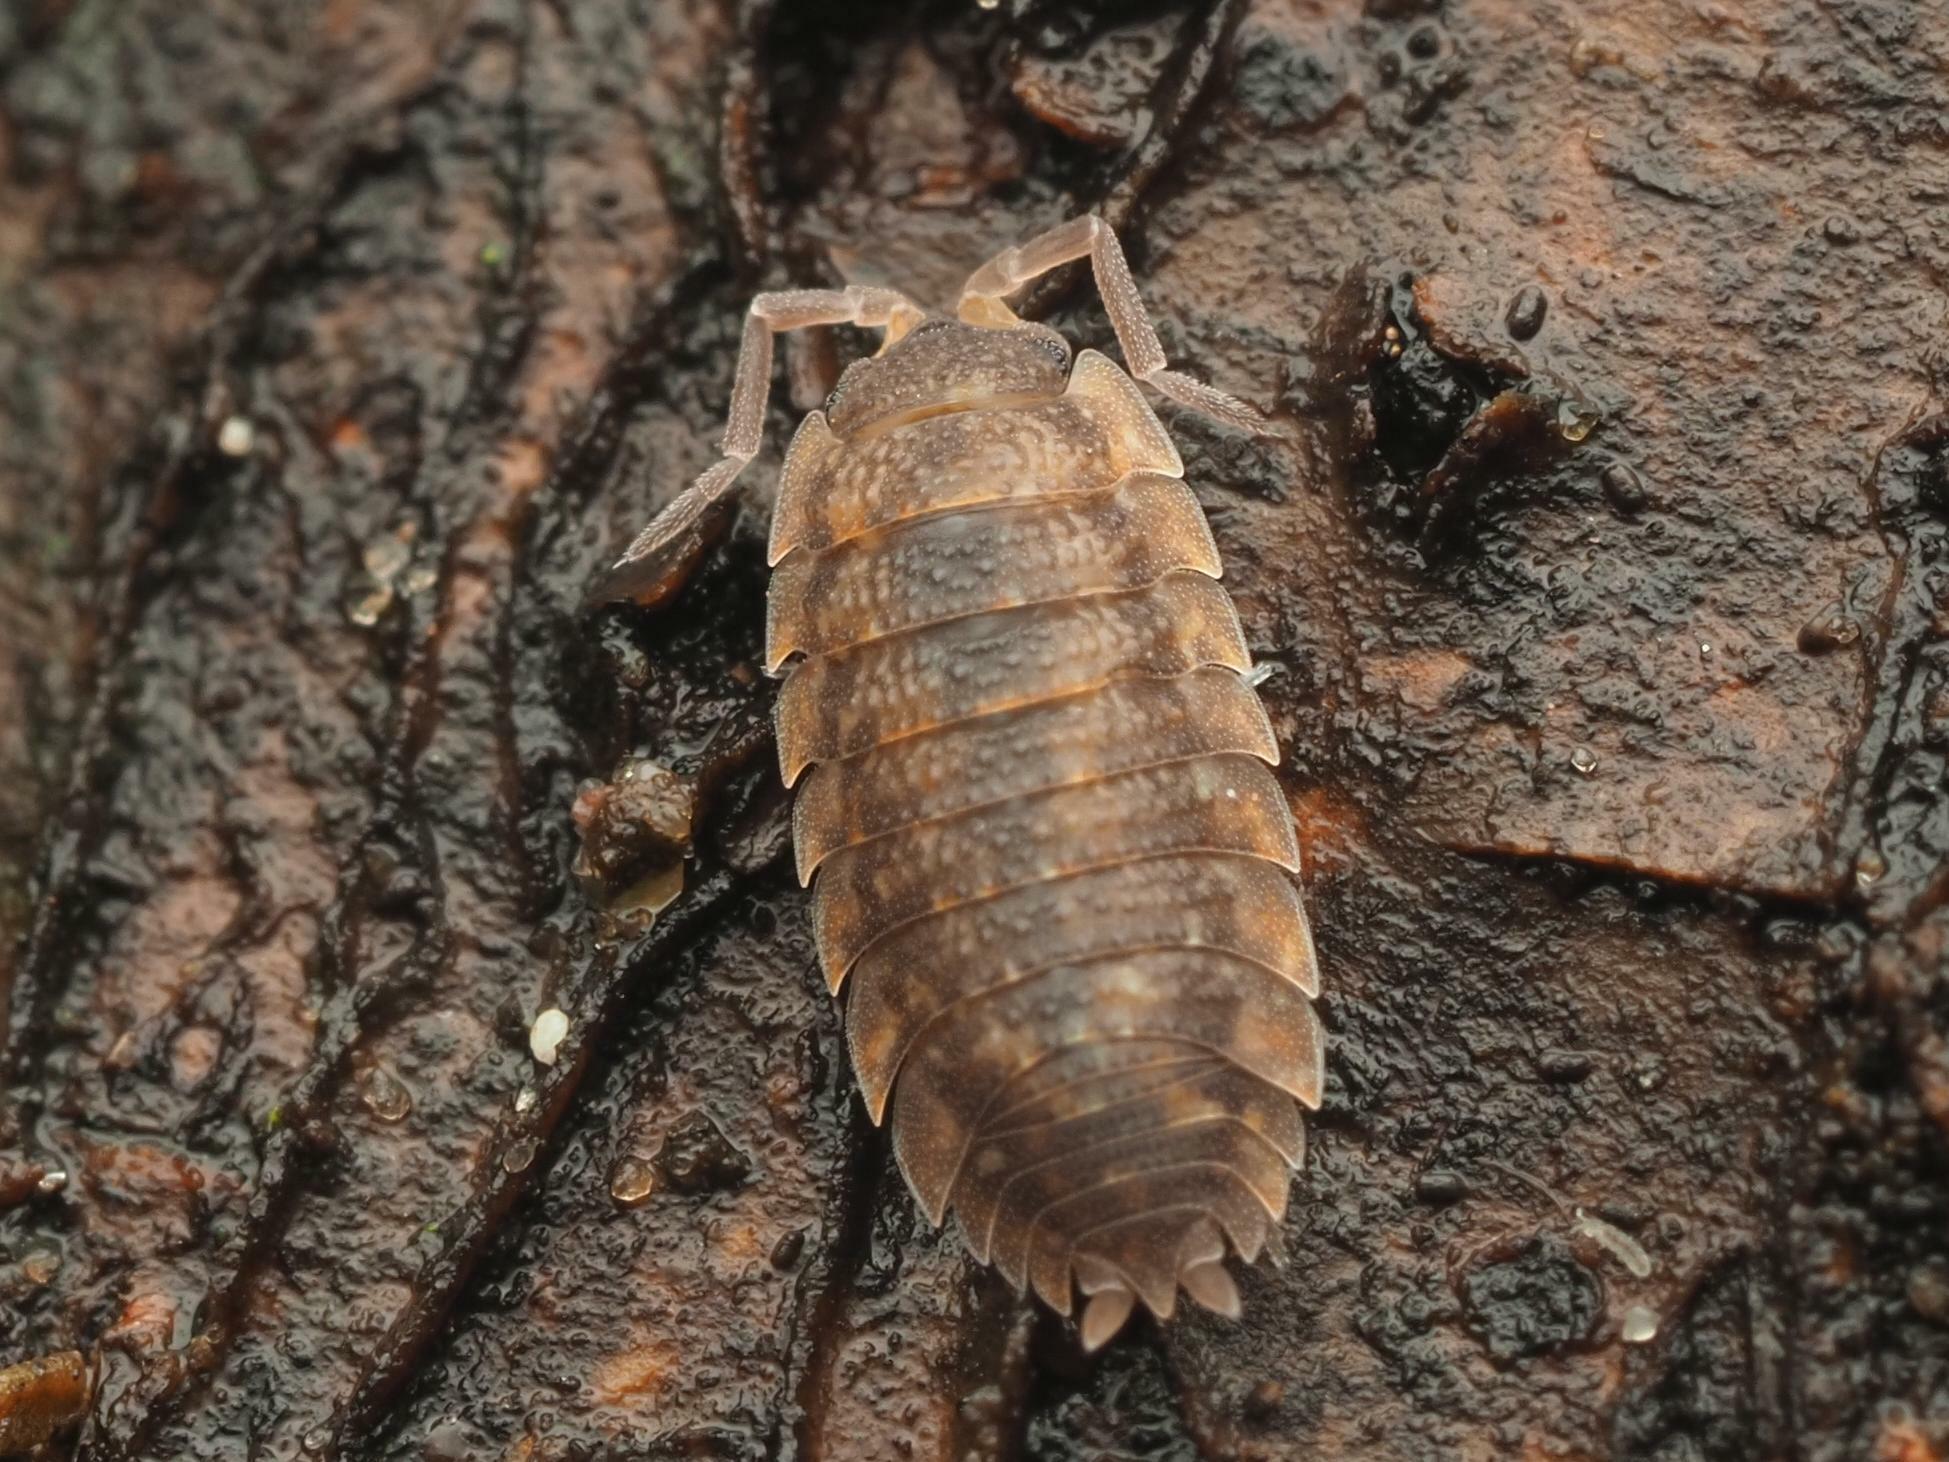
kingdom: Animalia
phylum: Arthropoda
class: Malacostraca
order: Isopoda
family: Porcellionidae
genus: Porcellio
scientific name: Porcellio scaber
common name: Common rough woodlouse
